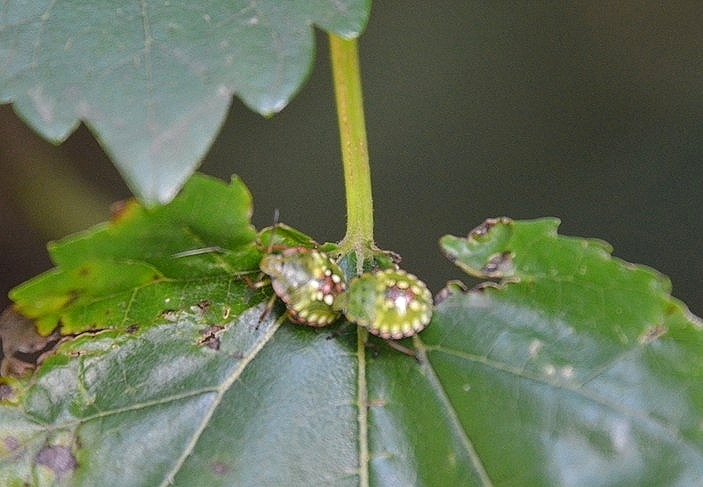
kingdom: Animalia
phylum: Arthropoda
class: Insecta
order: Hemiptera
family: Pentatomidae
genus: Nezara
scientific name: Nezara viridula
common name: Southern green stink bug
